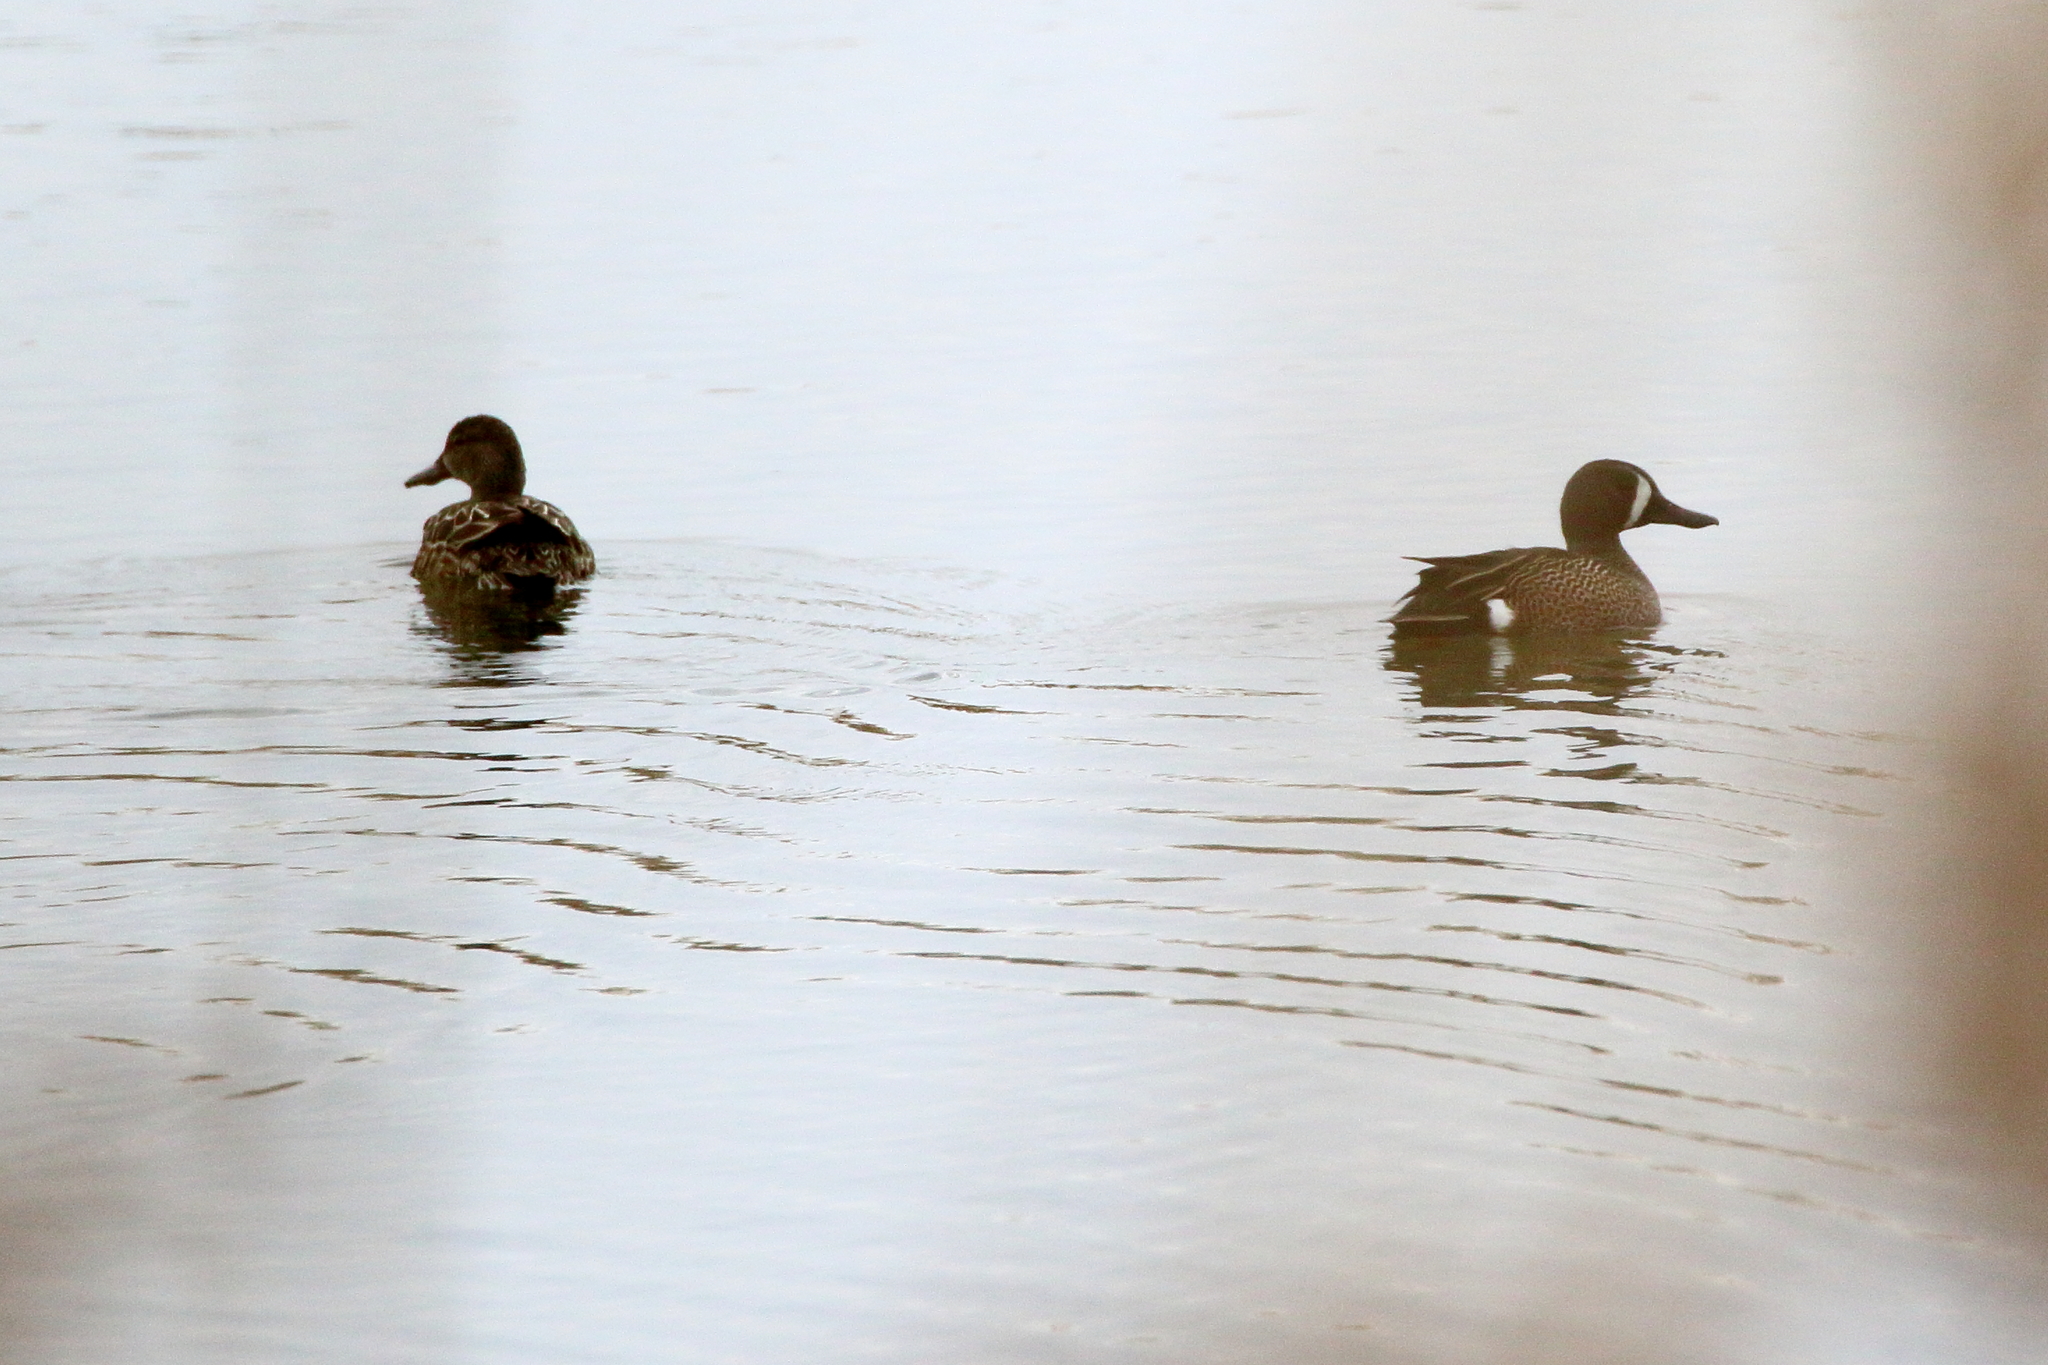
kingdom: Animalia
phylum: Chordata
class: Aves
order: Anseriformes
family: Anatidae
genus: Spatula
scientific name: Spatula discors
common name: Blue-winged teal
